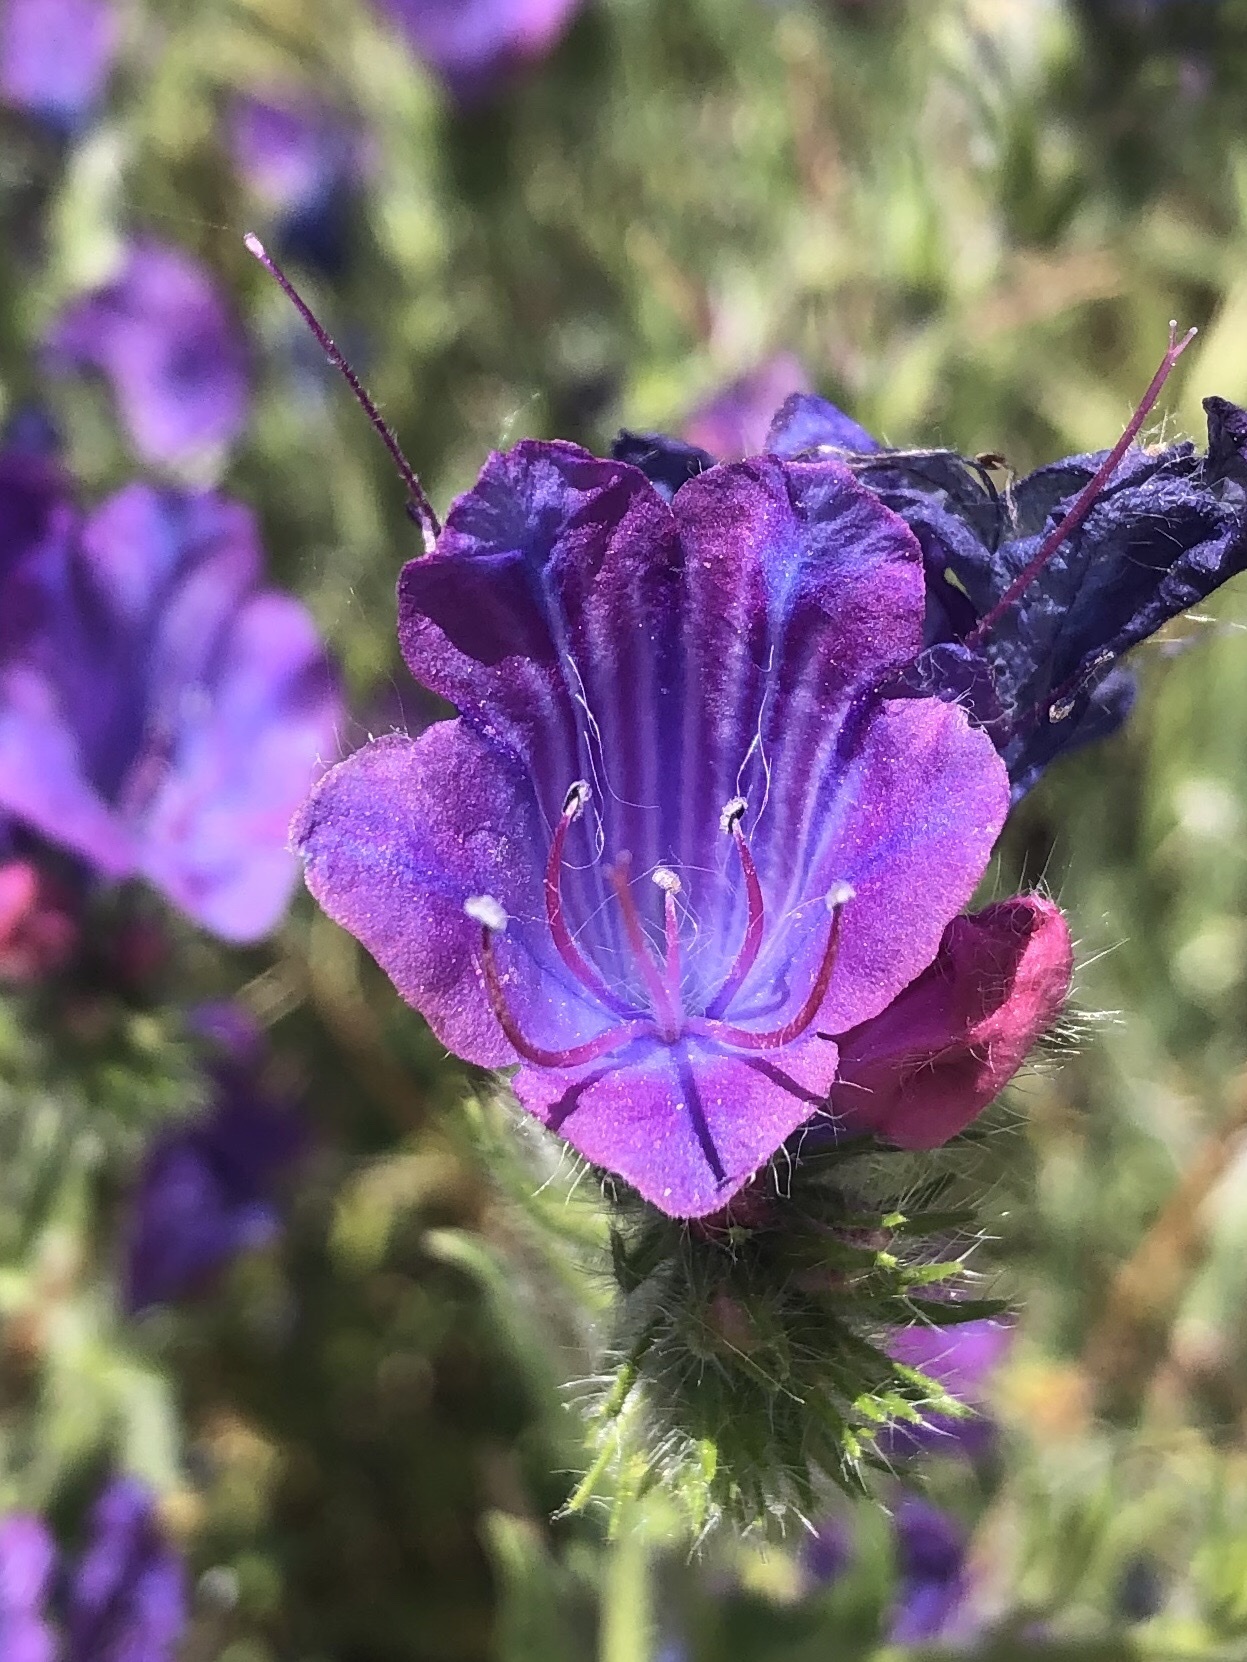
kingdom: Plantae
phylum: Tracheophyta
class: Magnoliopsida
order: Boraginales
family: Boraginaceae
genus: Echium
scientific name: Echium plantagineum
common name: Purple viper's-bugloss
